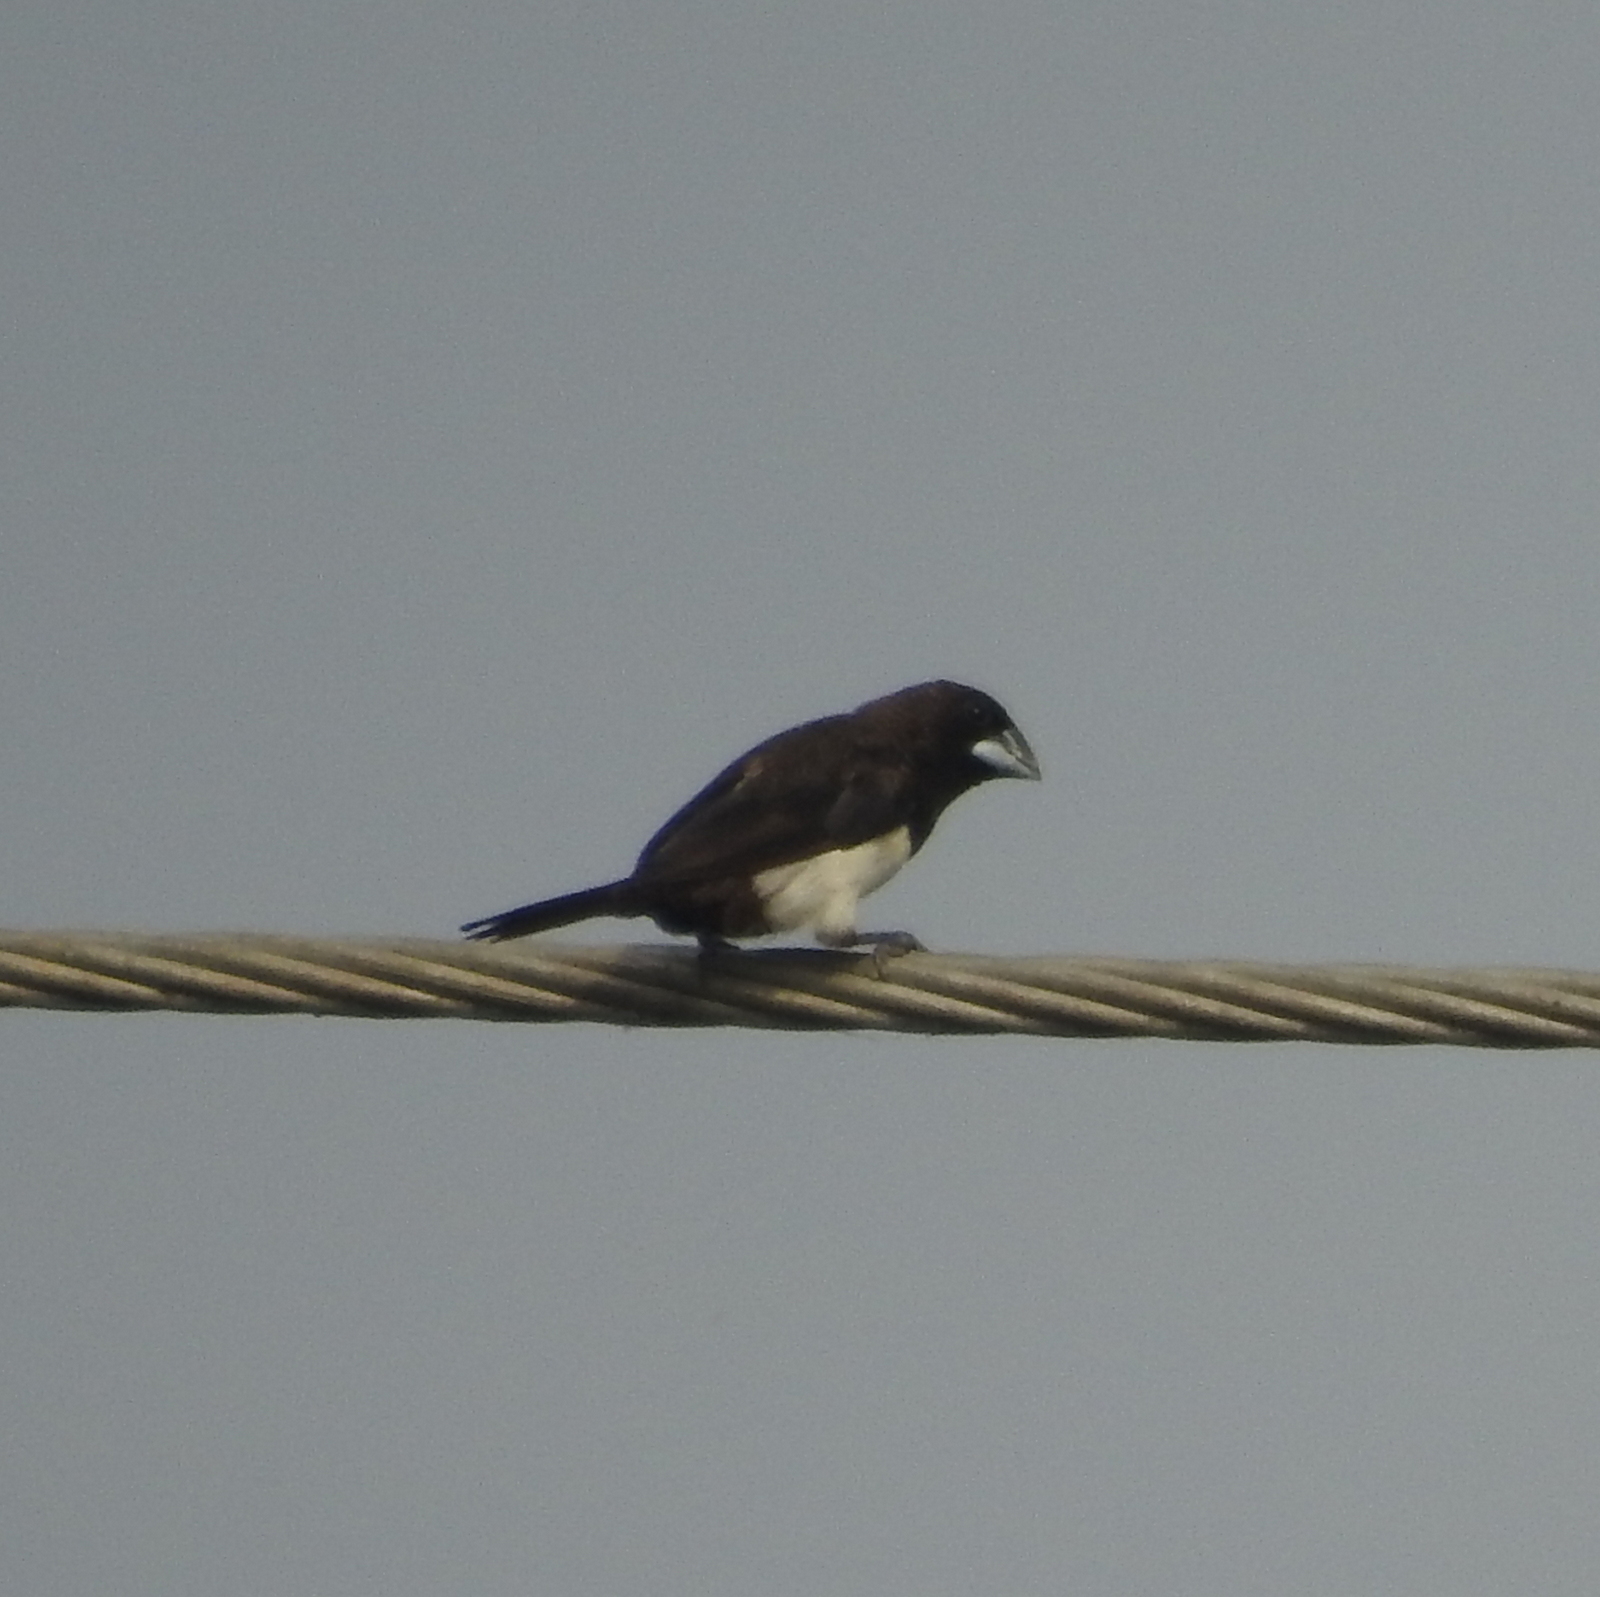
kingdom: Animalia
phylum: Chordata
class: Aves
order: Passeriformes
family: Estrildidae
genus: Lonchura
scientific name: Lonchura striata
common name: White-rumped munia
